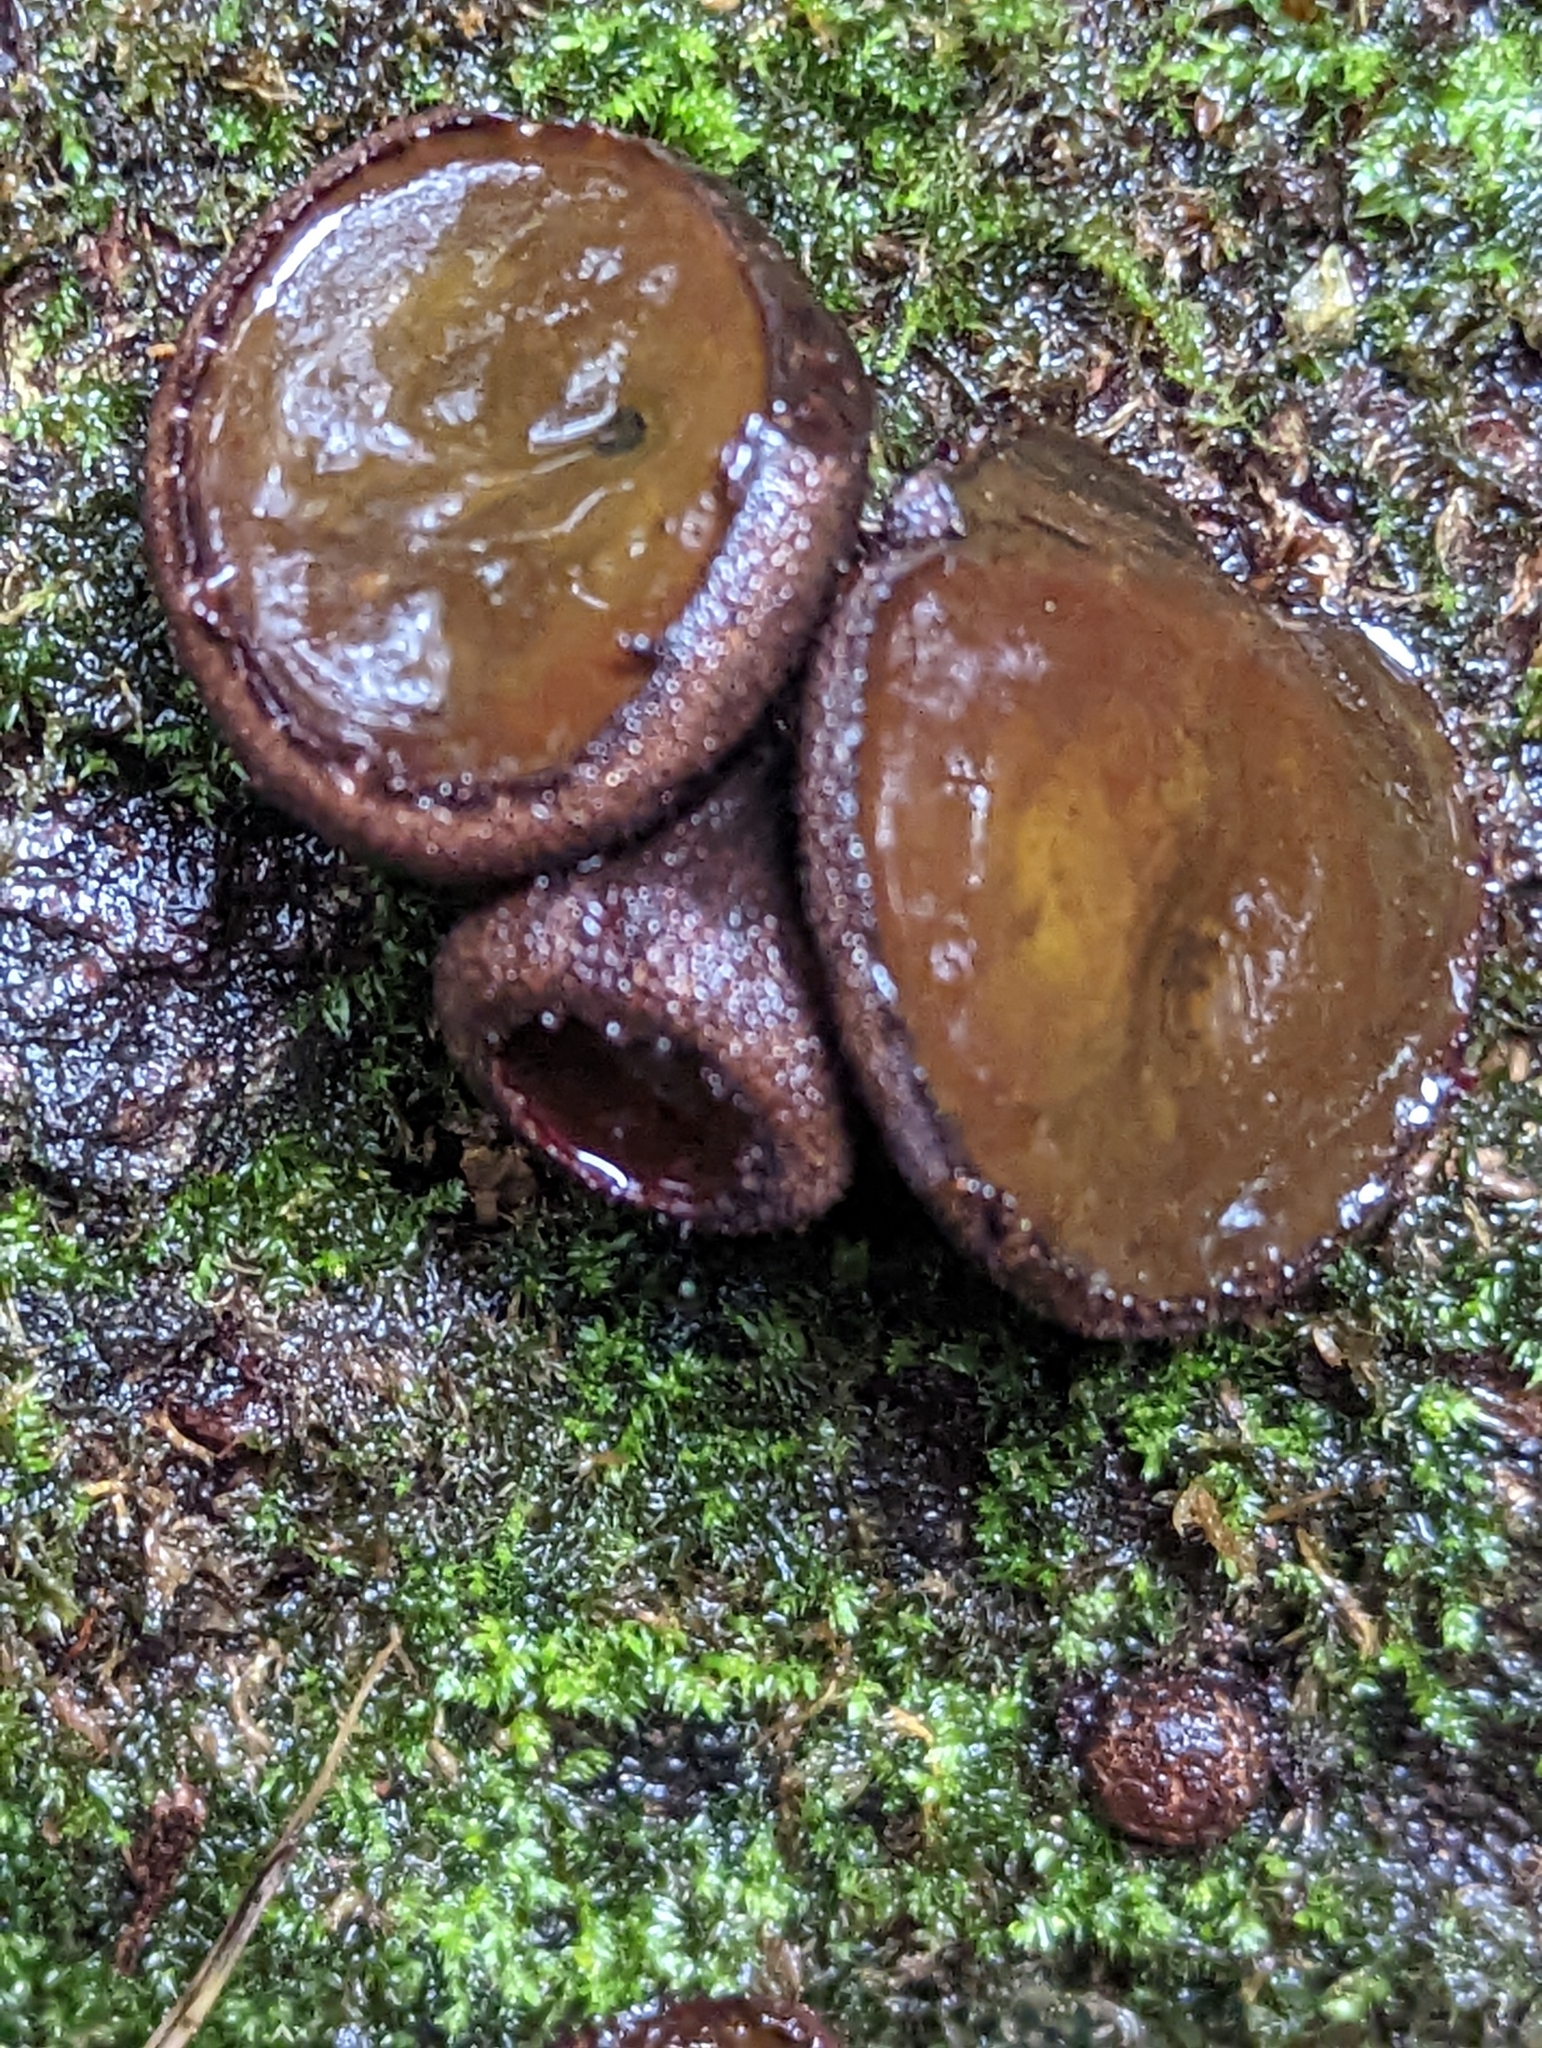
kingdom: Fungi
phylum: Ascomycota
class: Leotiomycetes
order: Phacidiales
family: Phacidiaceae
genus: Bulgaria
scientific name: Bulgaria inquinans
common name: Black bulgar
